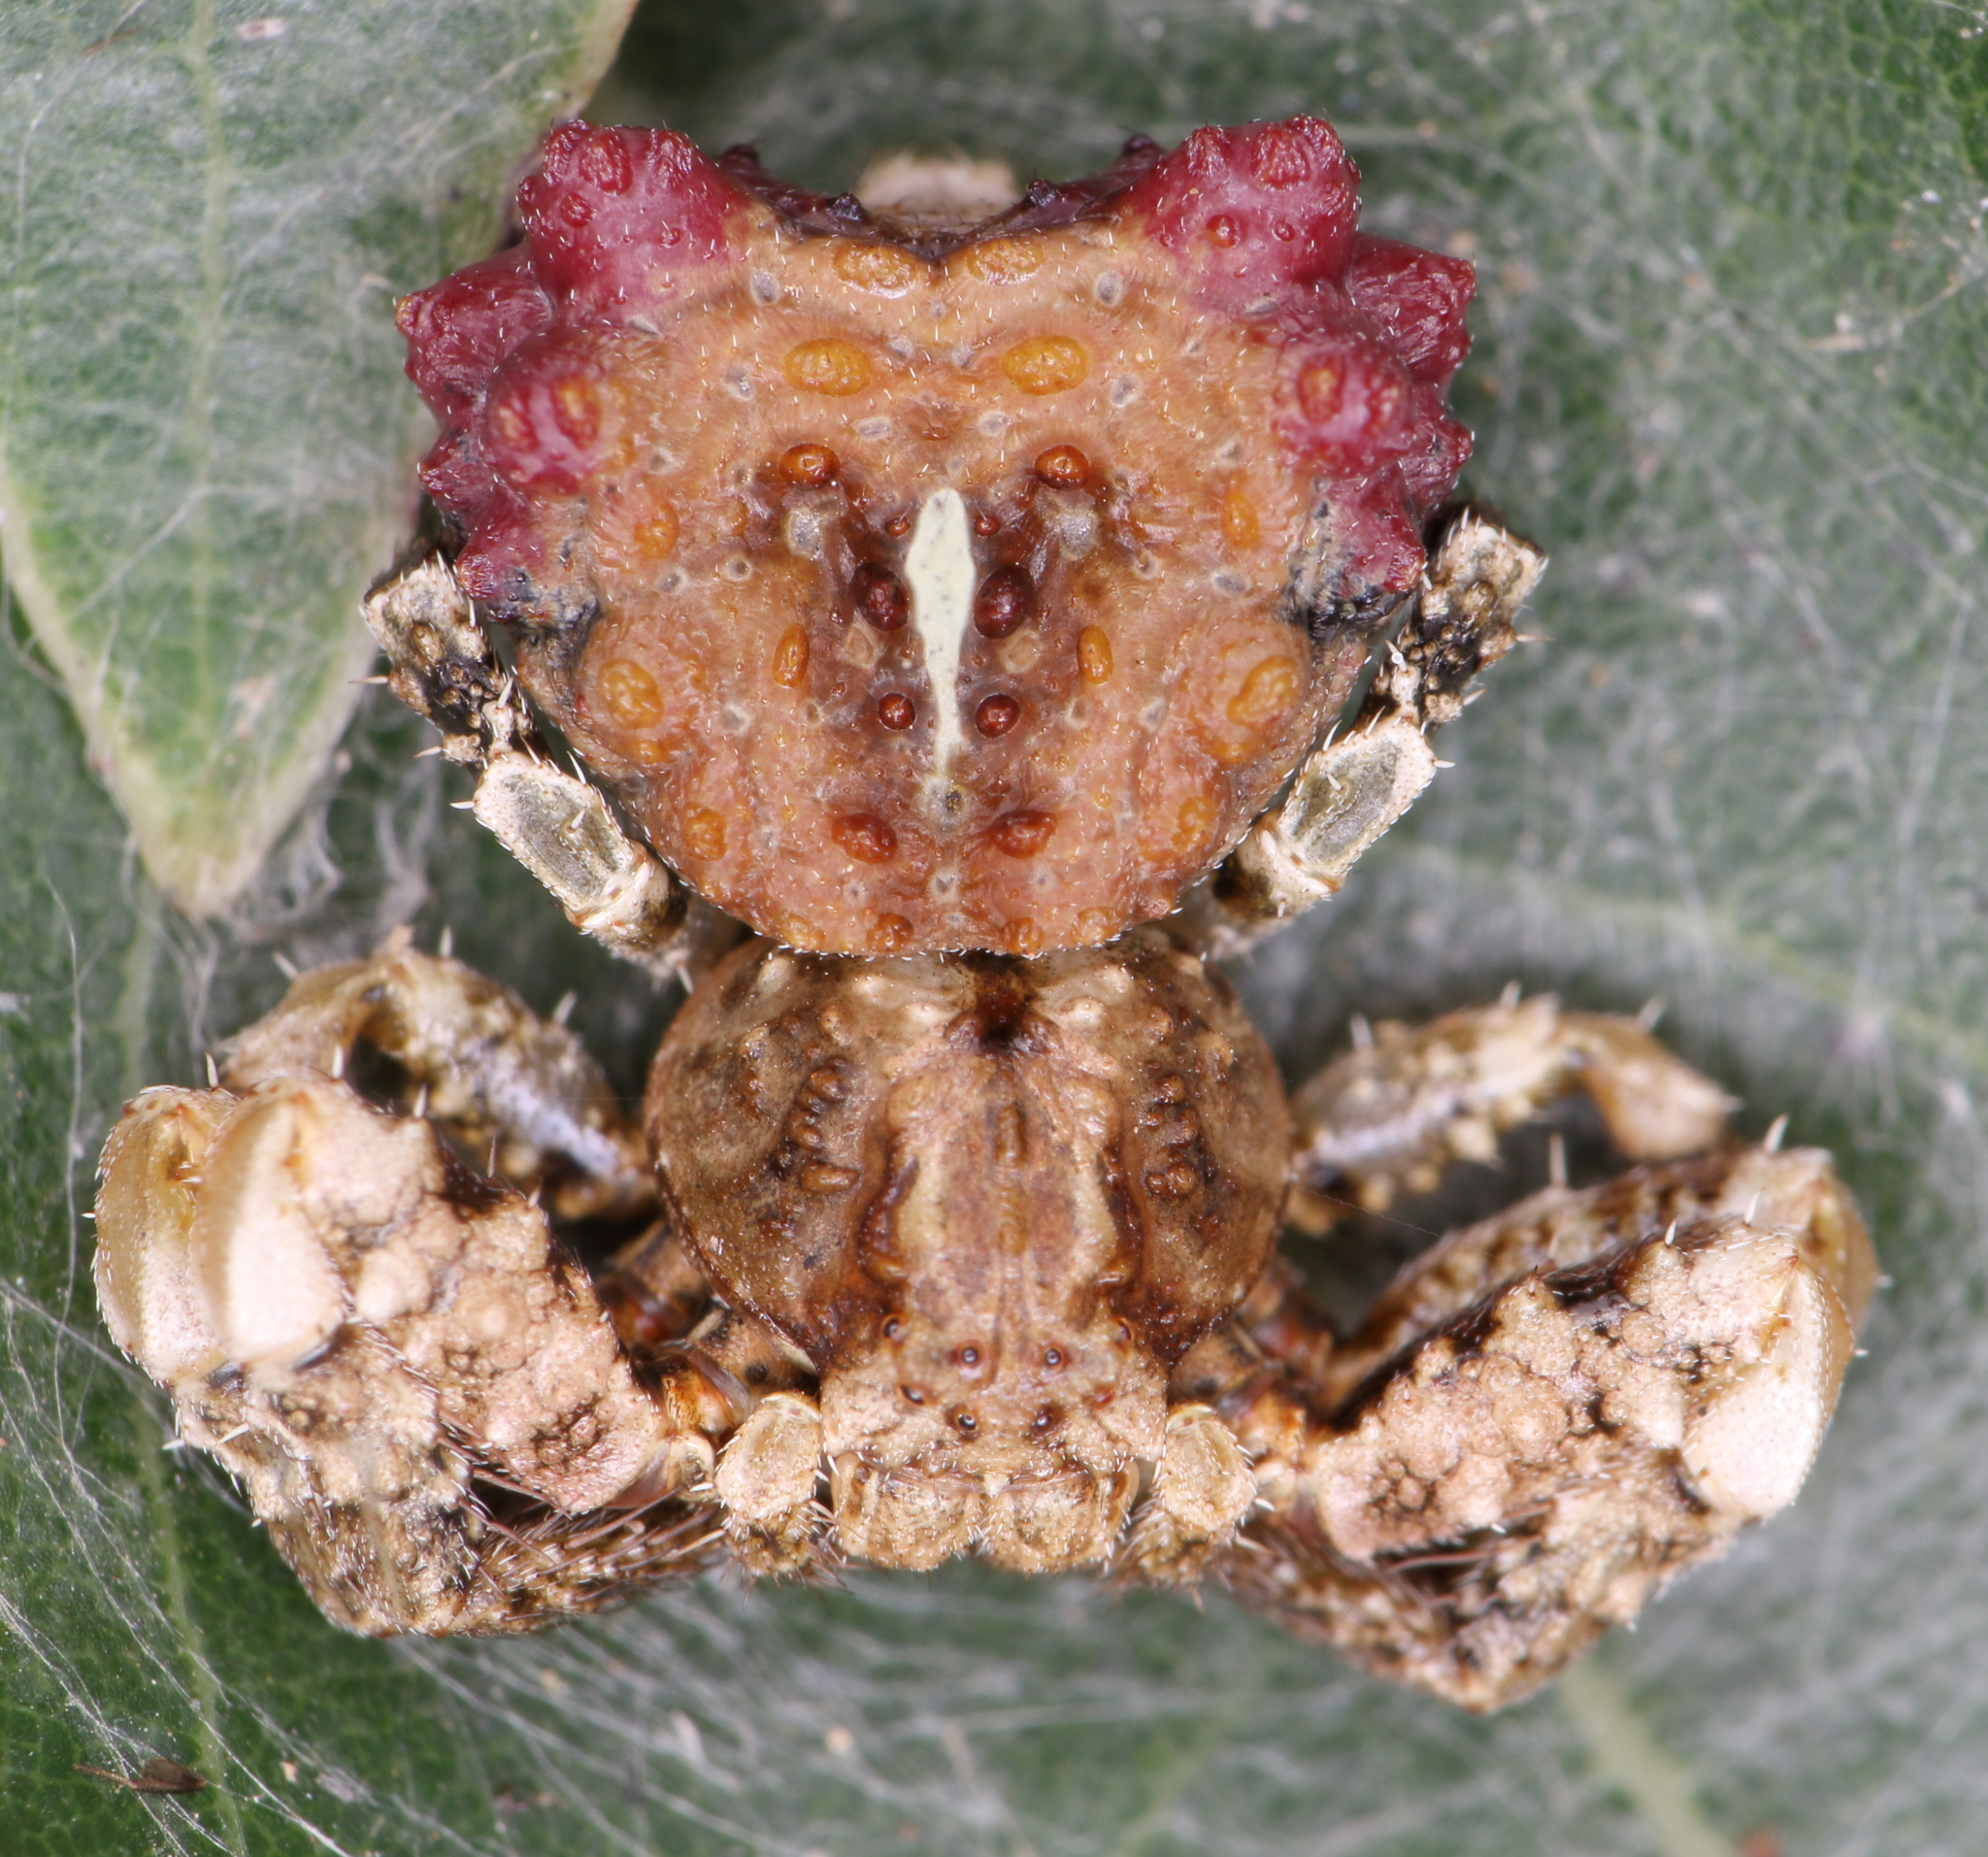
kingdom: Animalia
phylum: Arthropoda
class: Arachnida
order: Araneae
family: Thomisidae
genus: Phrynarachne
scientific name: Phrynarachne rugosa
